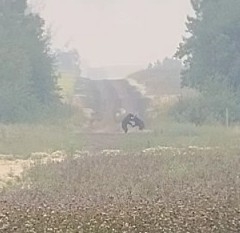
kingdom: Animalia
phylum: Chordata
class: Mammalia
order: Carnivora
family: Ursidae
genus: Ursus
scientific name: Ursus americanus
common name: American black bear
